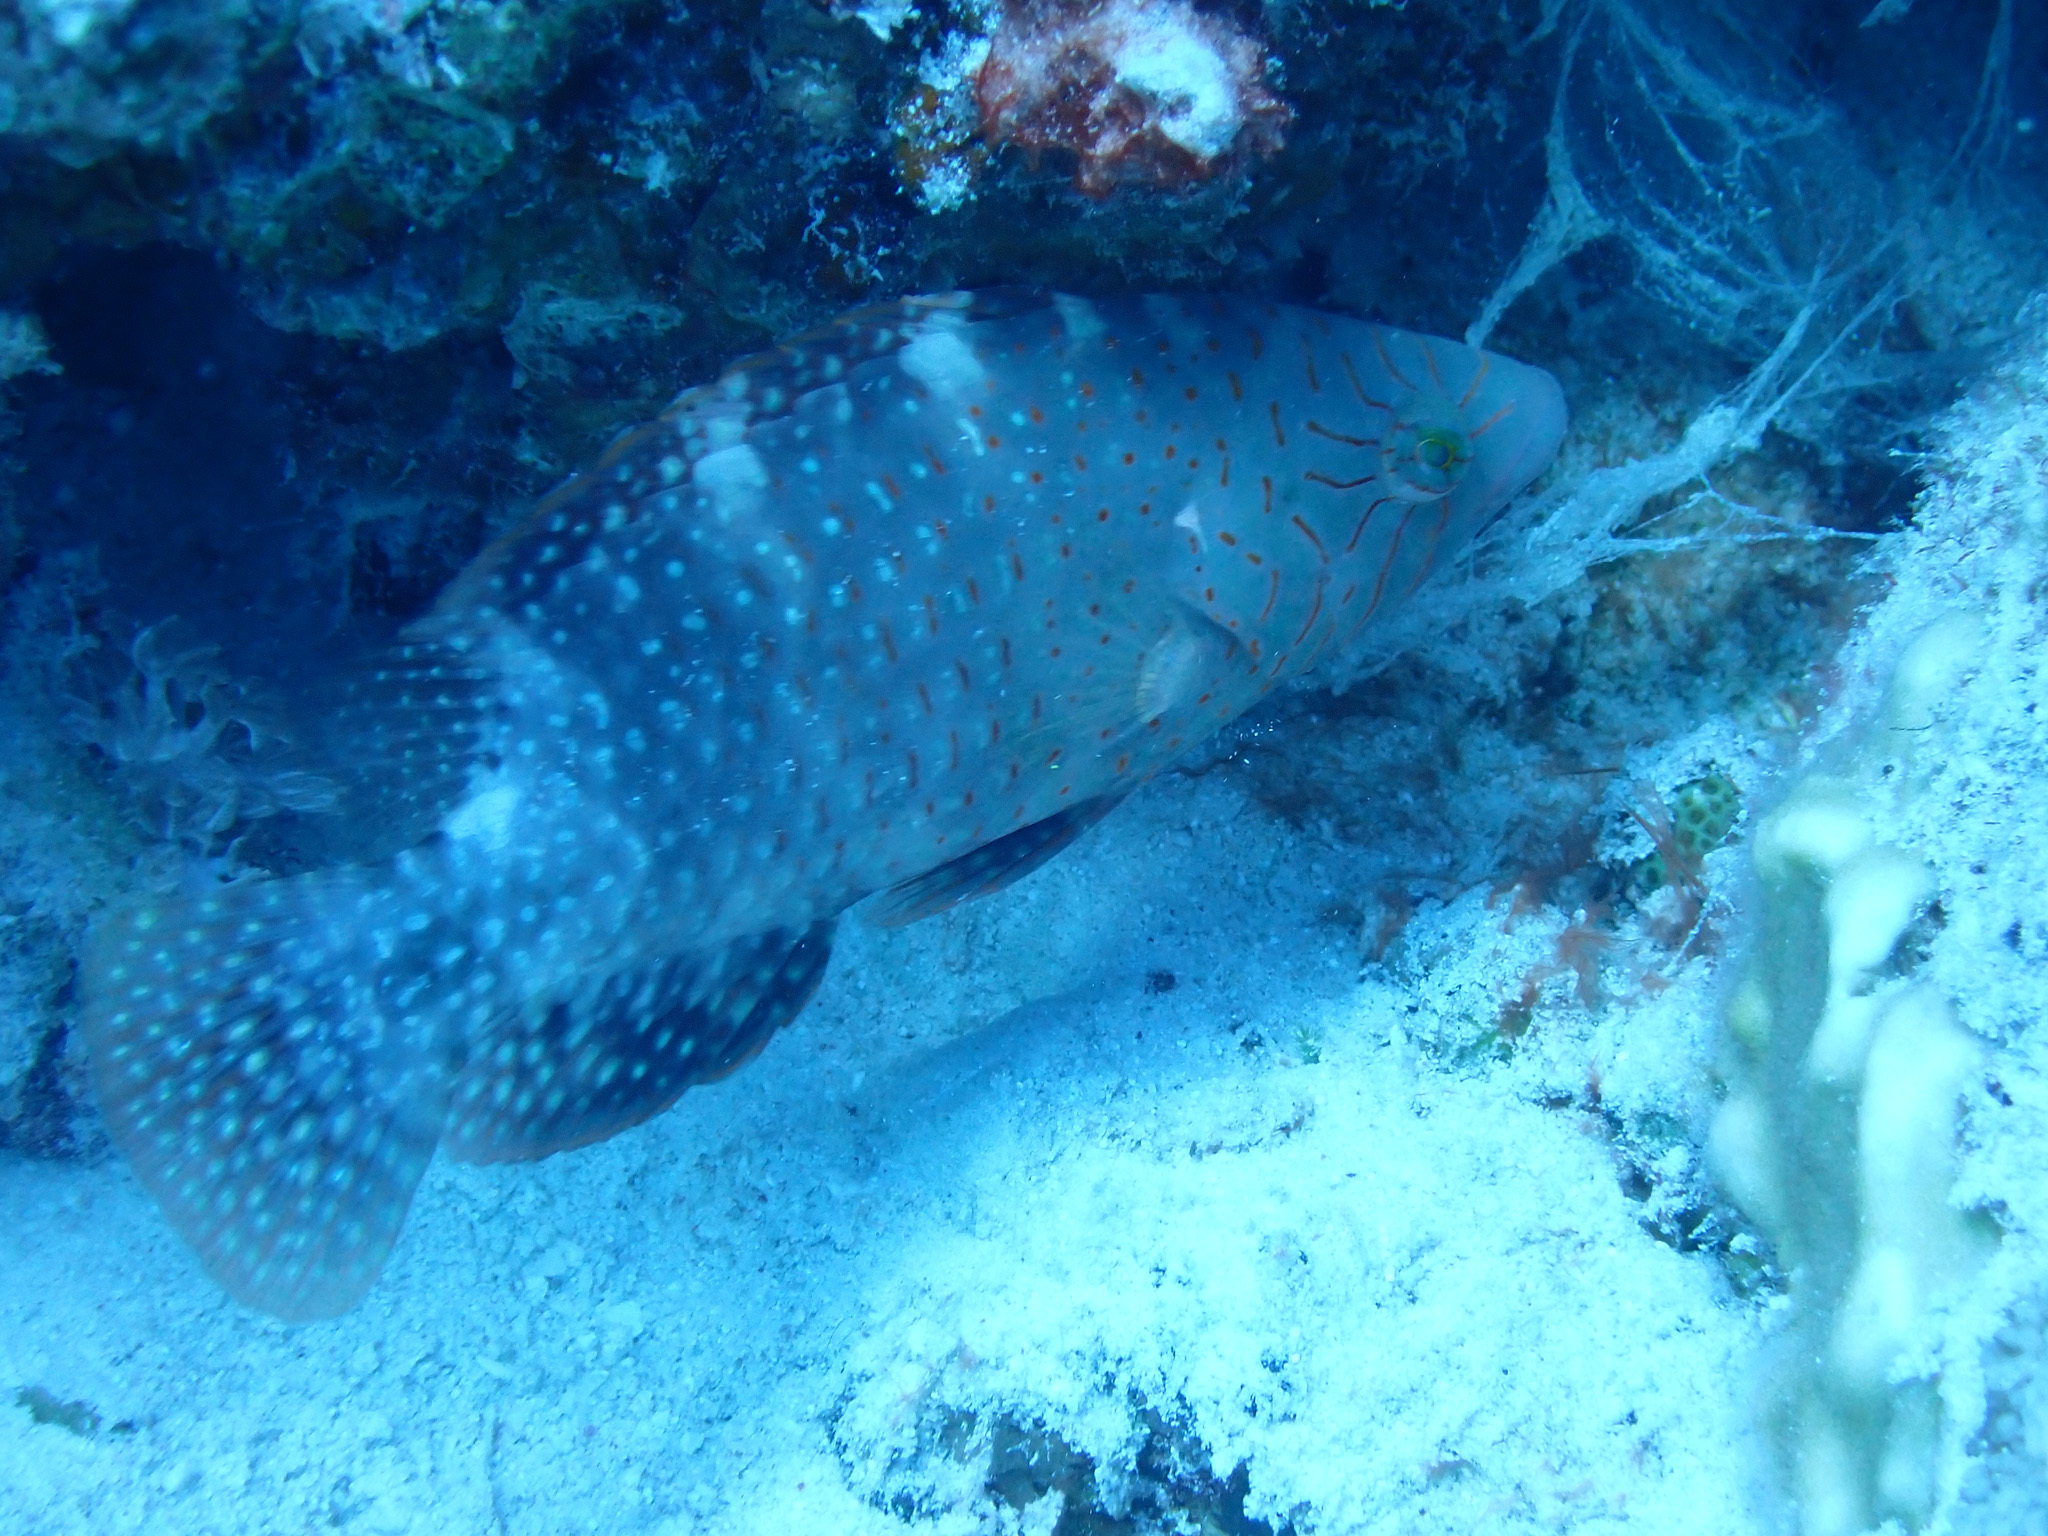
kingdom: Animalia
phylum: Chordata
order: Perciformes
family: Labridae
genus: Cheilinus
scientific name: Cheilinus abudjubbe
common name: Abudjubbe’s splendor wrasse
